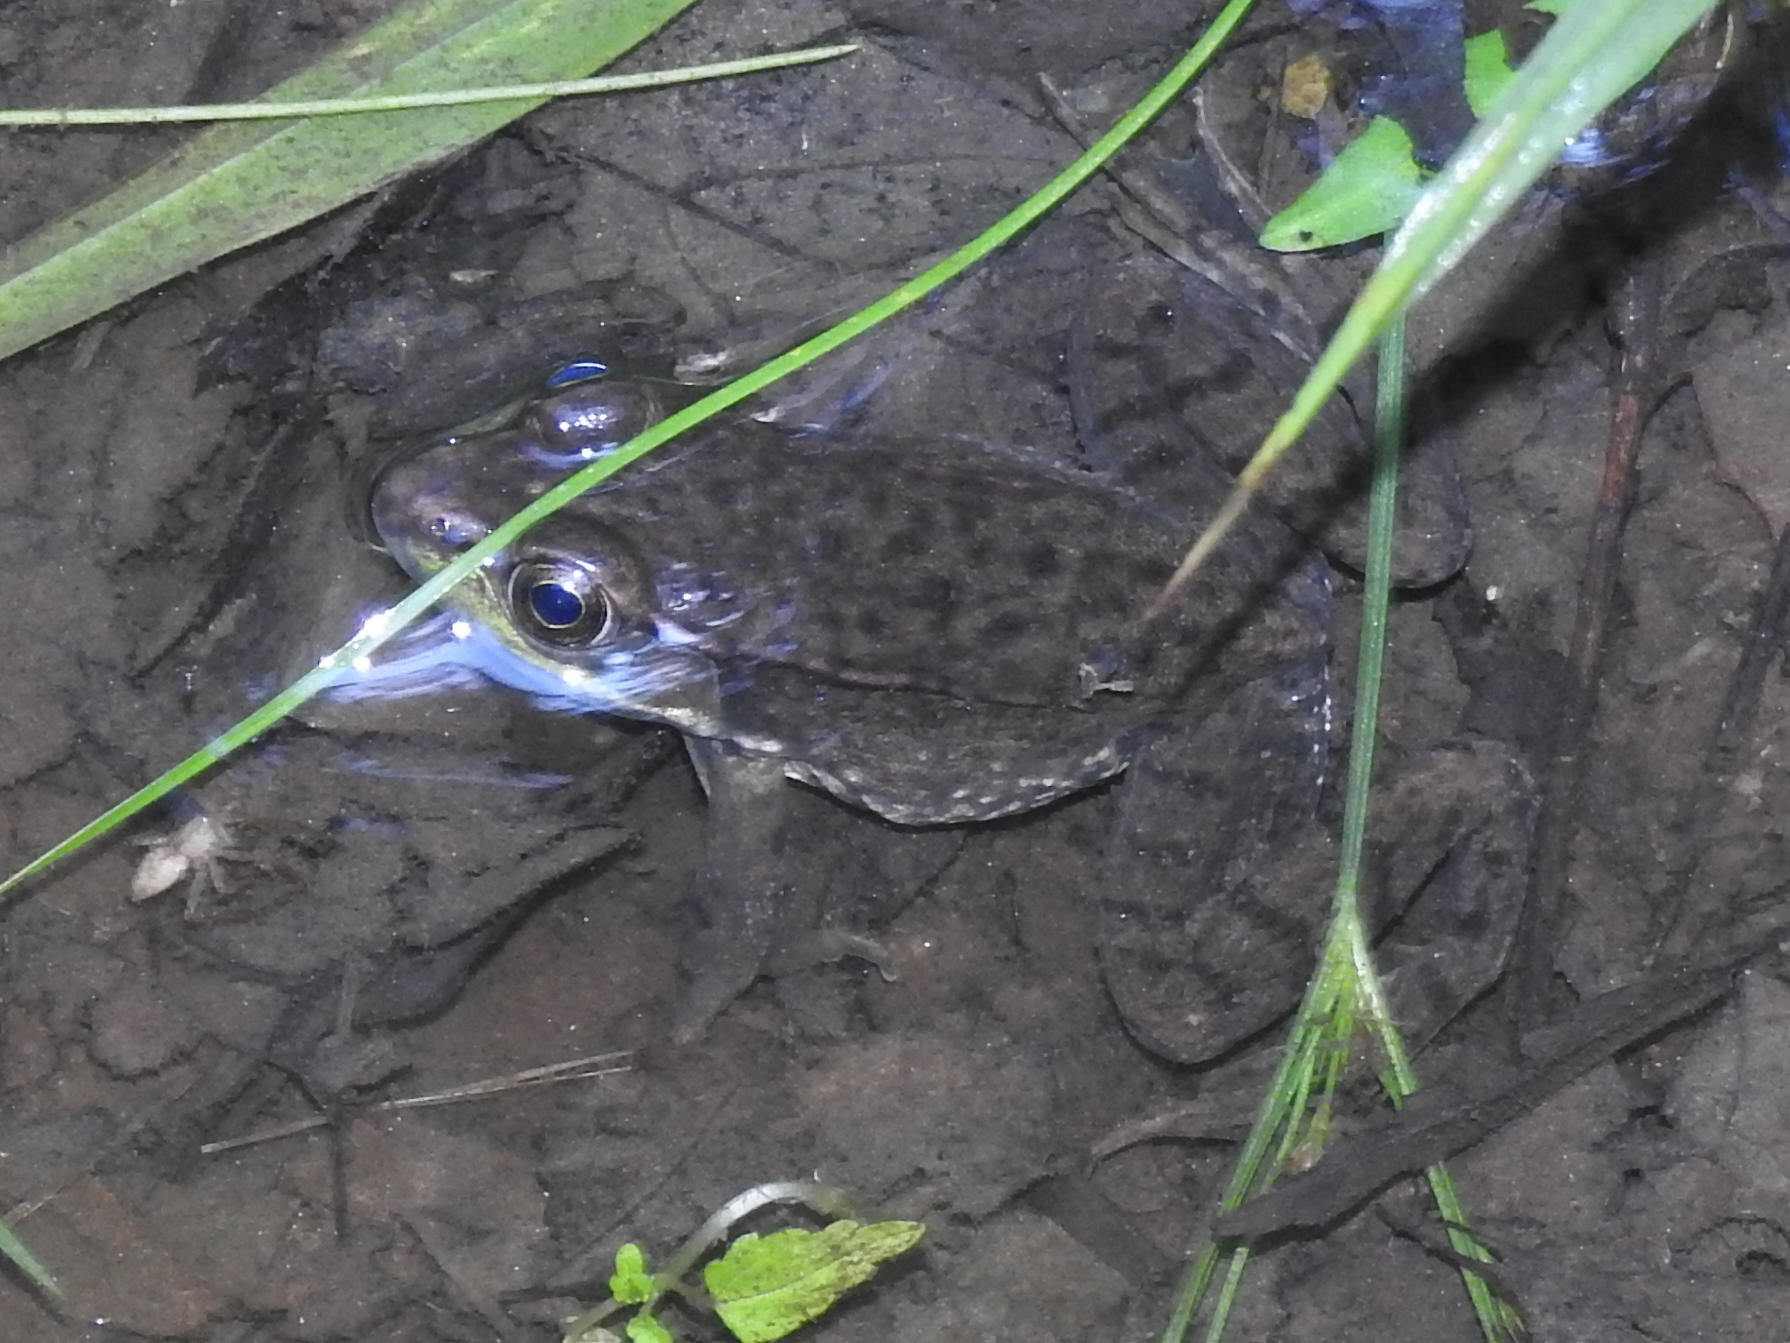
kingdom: Animalia
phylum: Chordata
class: Amphibia
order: Anura
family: Ranidae
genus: Lithobates
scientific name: Lithobates clamitans
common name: Green frog
